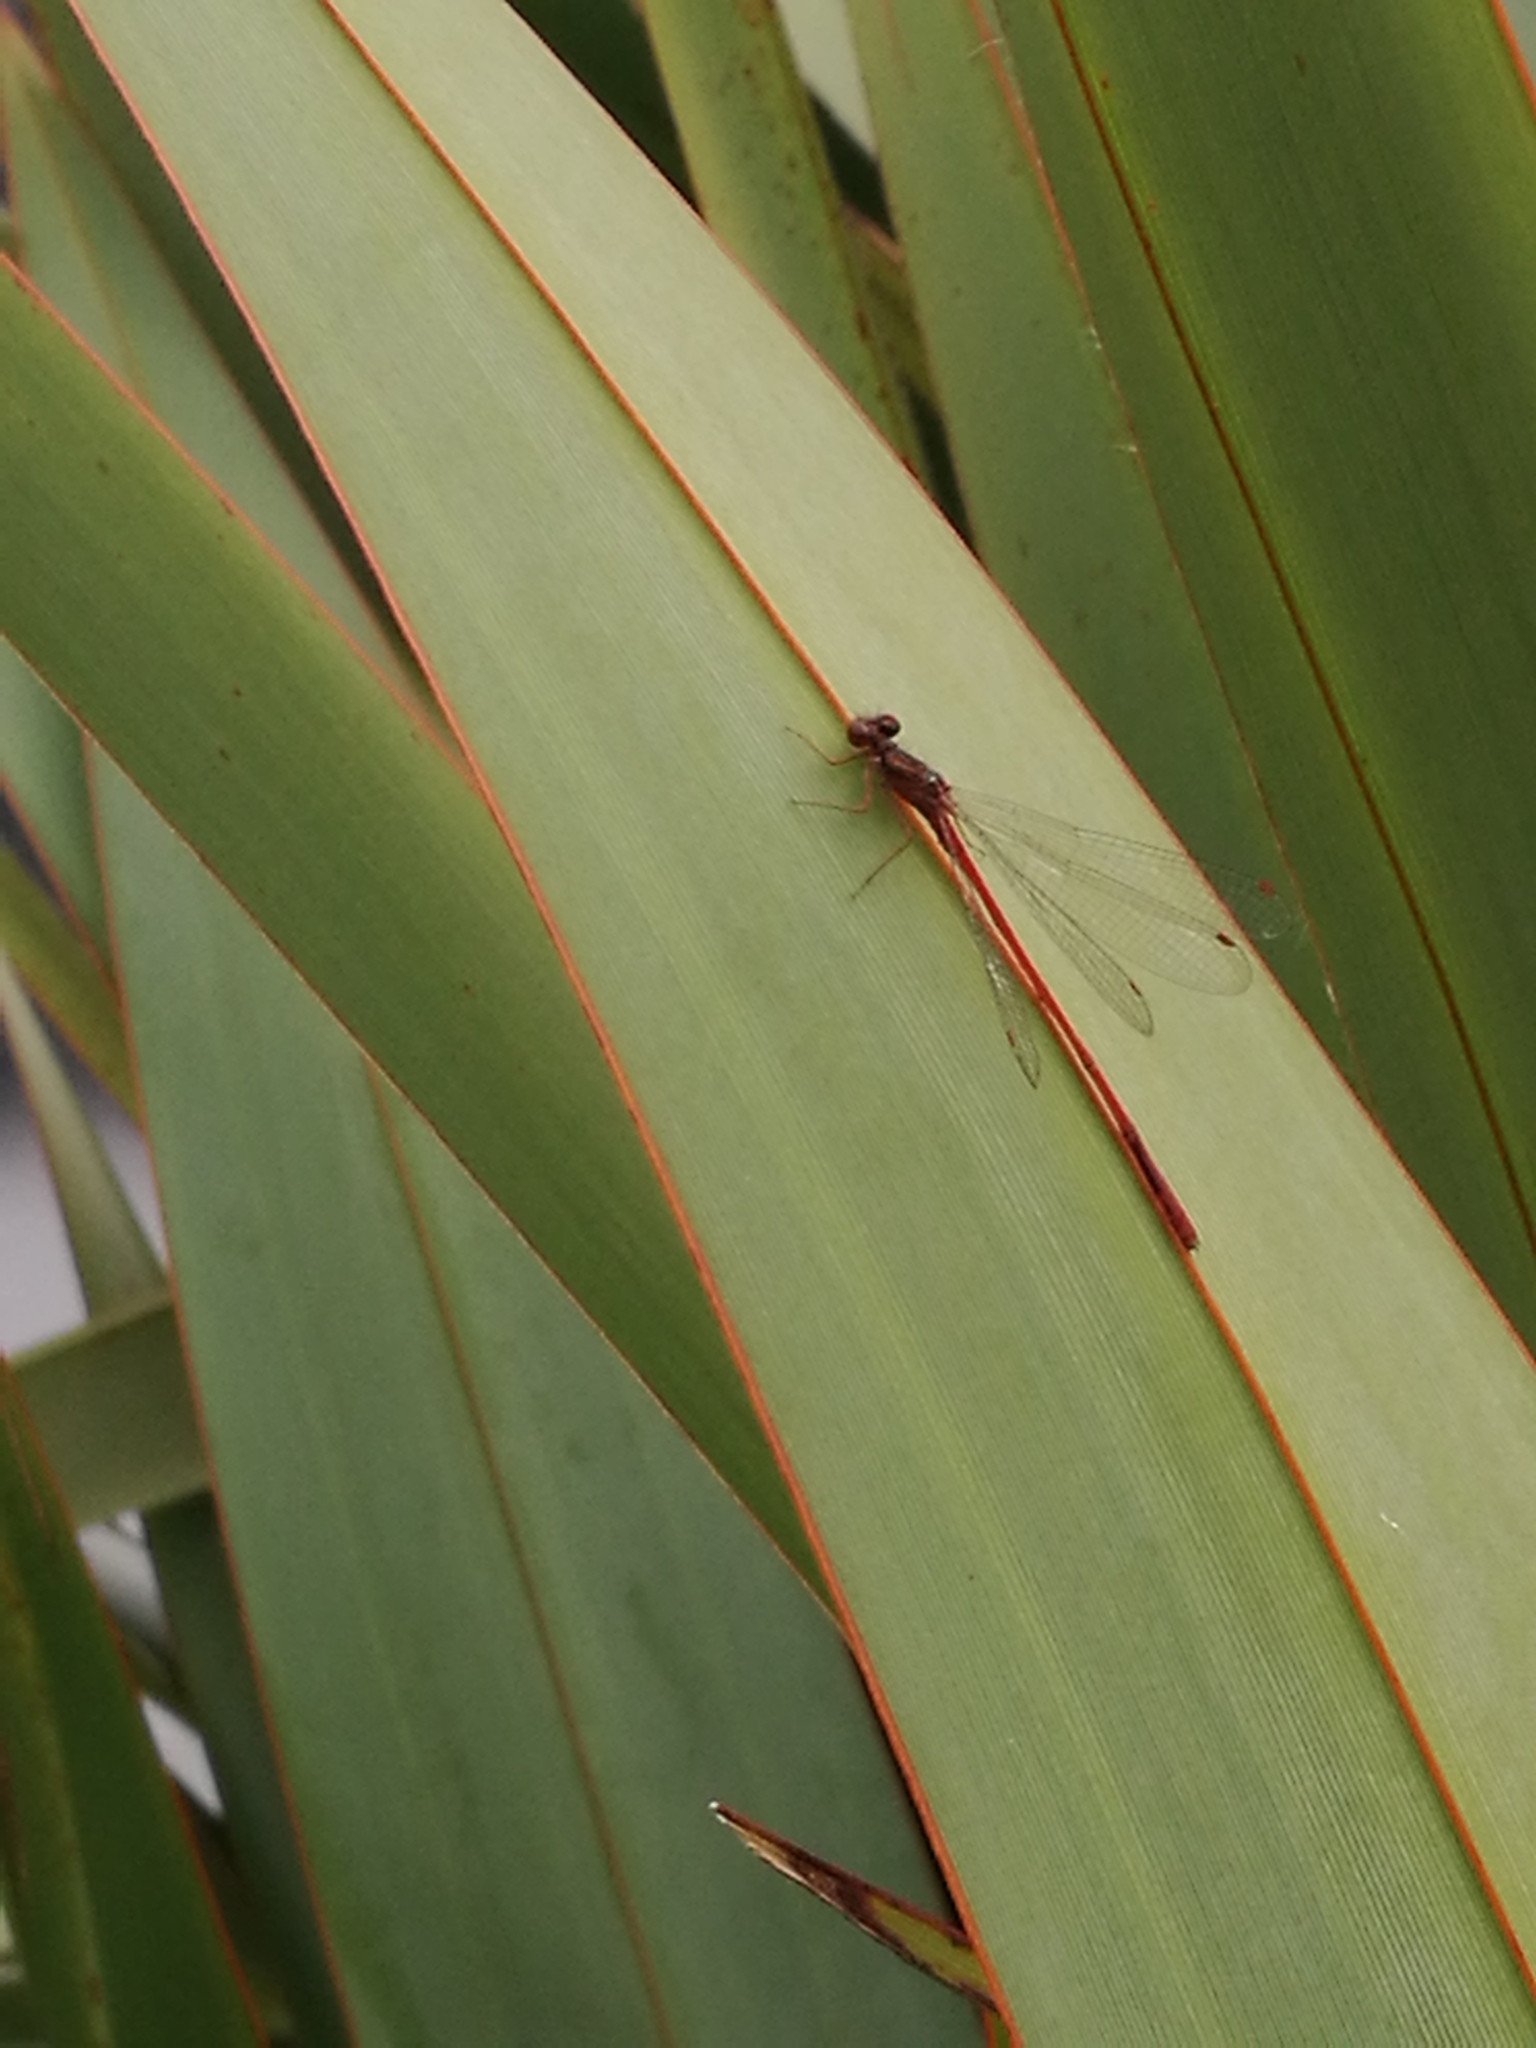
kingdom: Animalia
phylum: Arthropoda
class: Insecta
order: Odonata
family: Coenagrionidae
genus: Xanthocnemis
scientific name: Xanthocnemis zealandica
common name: Common redcoat damselfly
